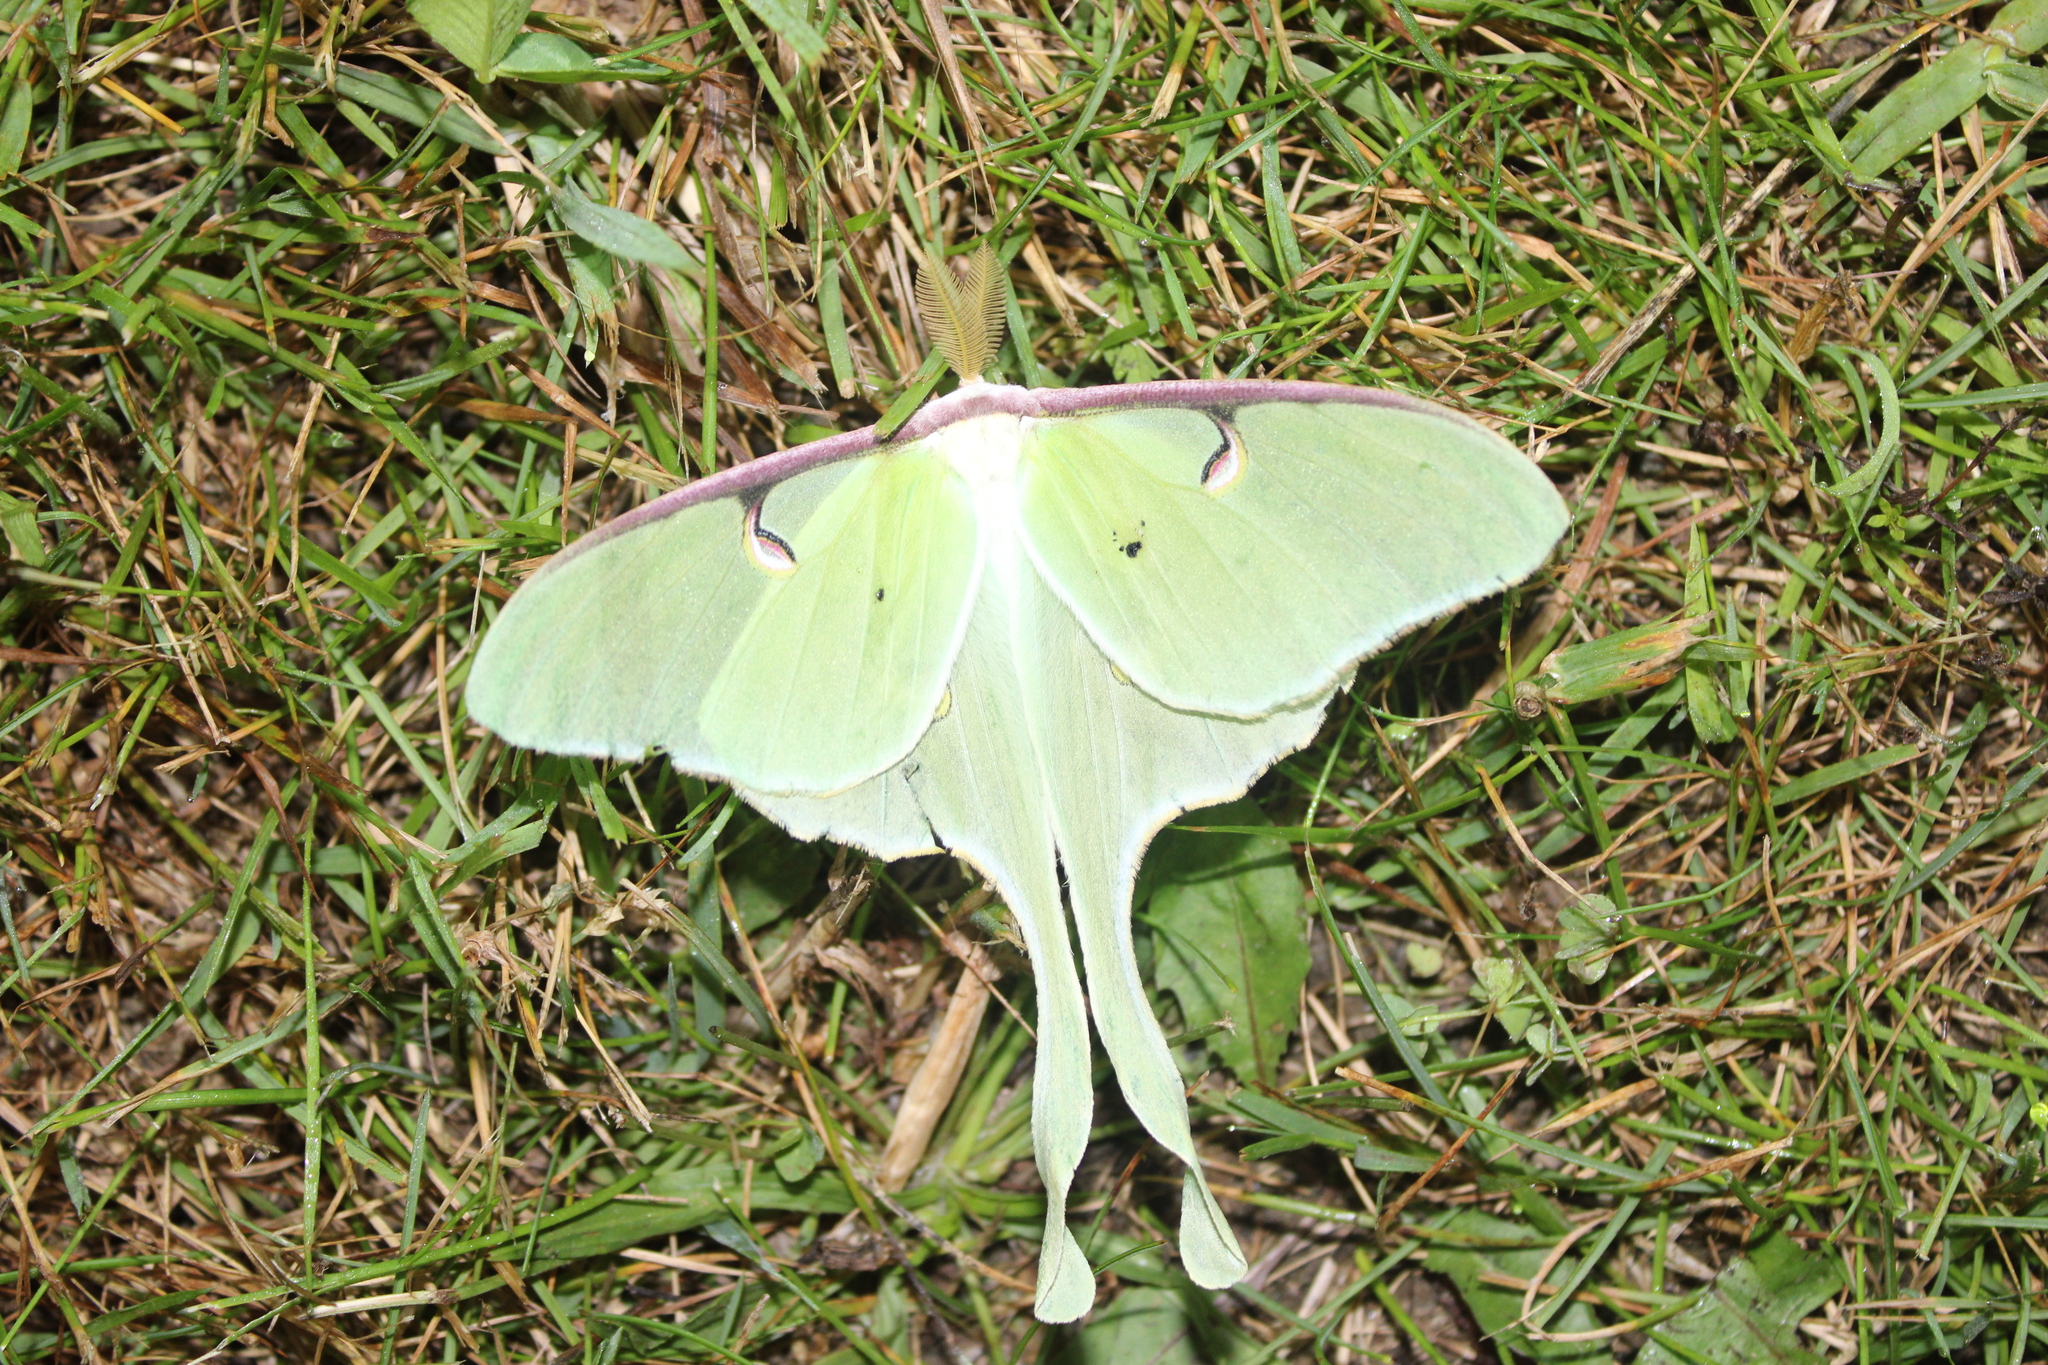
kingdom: Animalia
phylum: Arthropoda
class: Insecta
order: Lepidoptera
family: Saturniidae
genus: Actias
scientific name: Actias luna
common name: Luna moth
